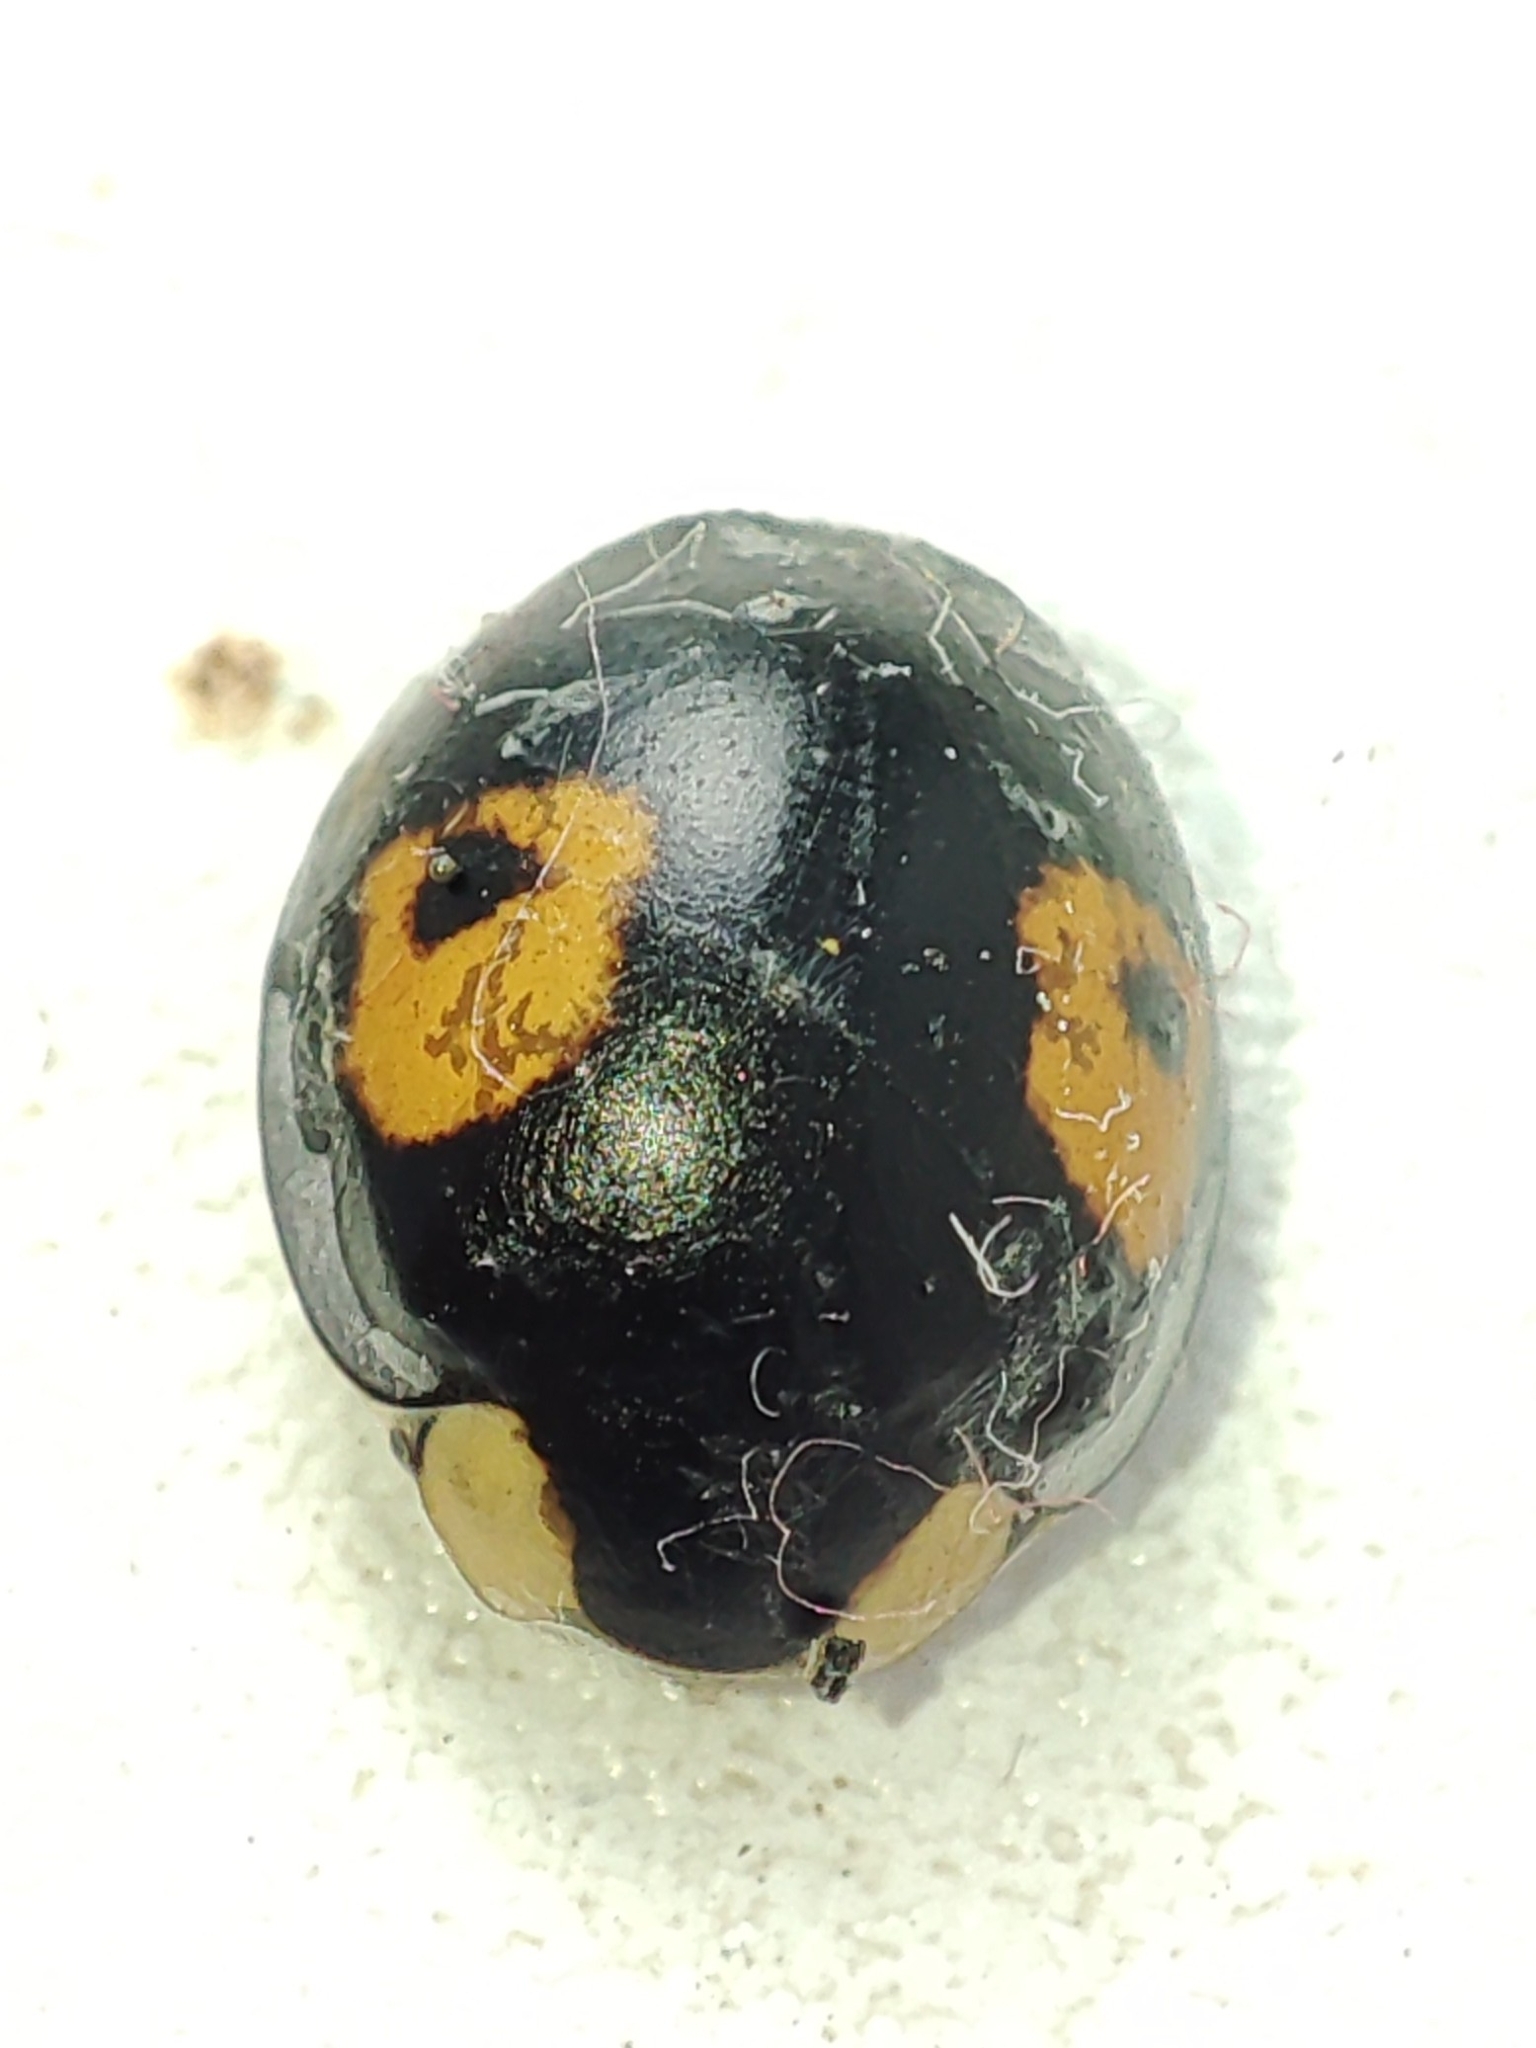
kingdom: Animalia
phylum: Arthropoda
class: Insecta
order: Coleoptera
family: Coccinellidae
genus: Harmonia
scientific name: Harmonia axyridis
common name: Harlequin ladybird
